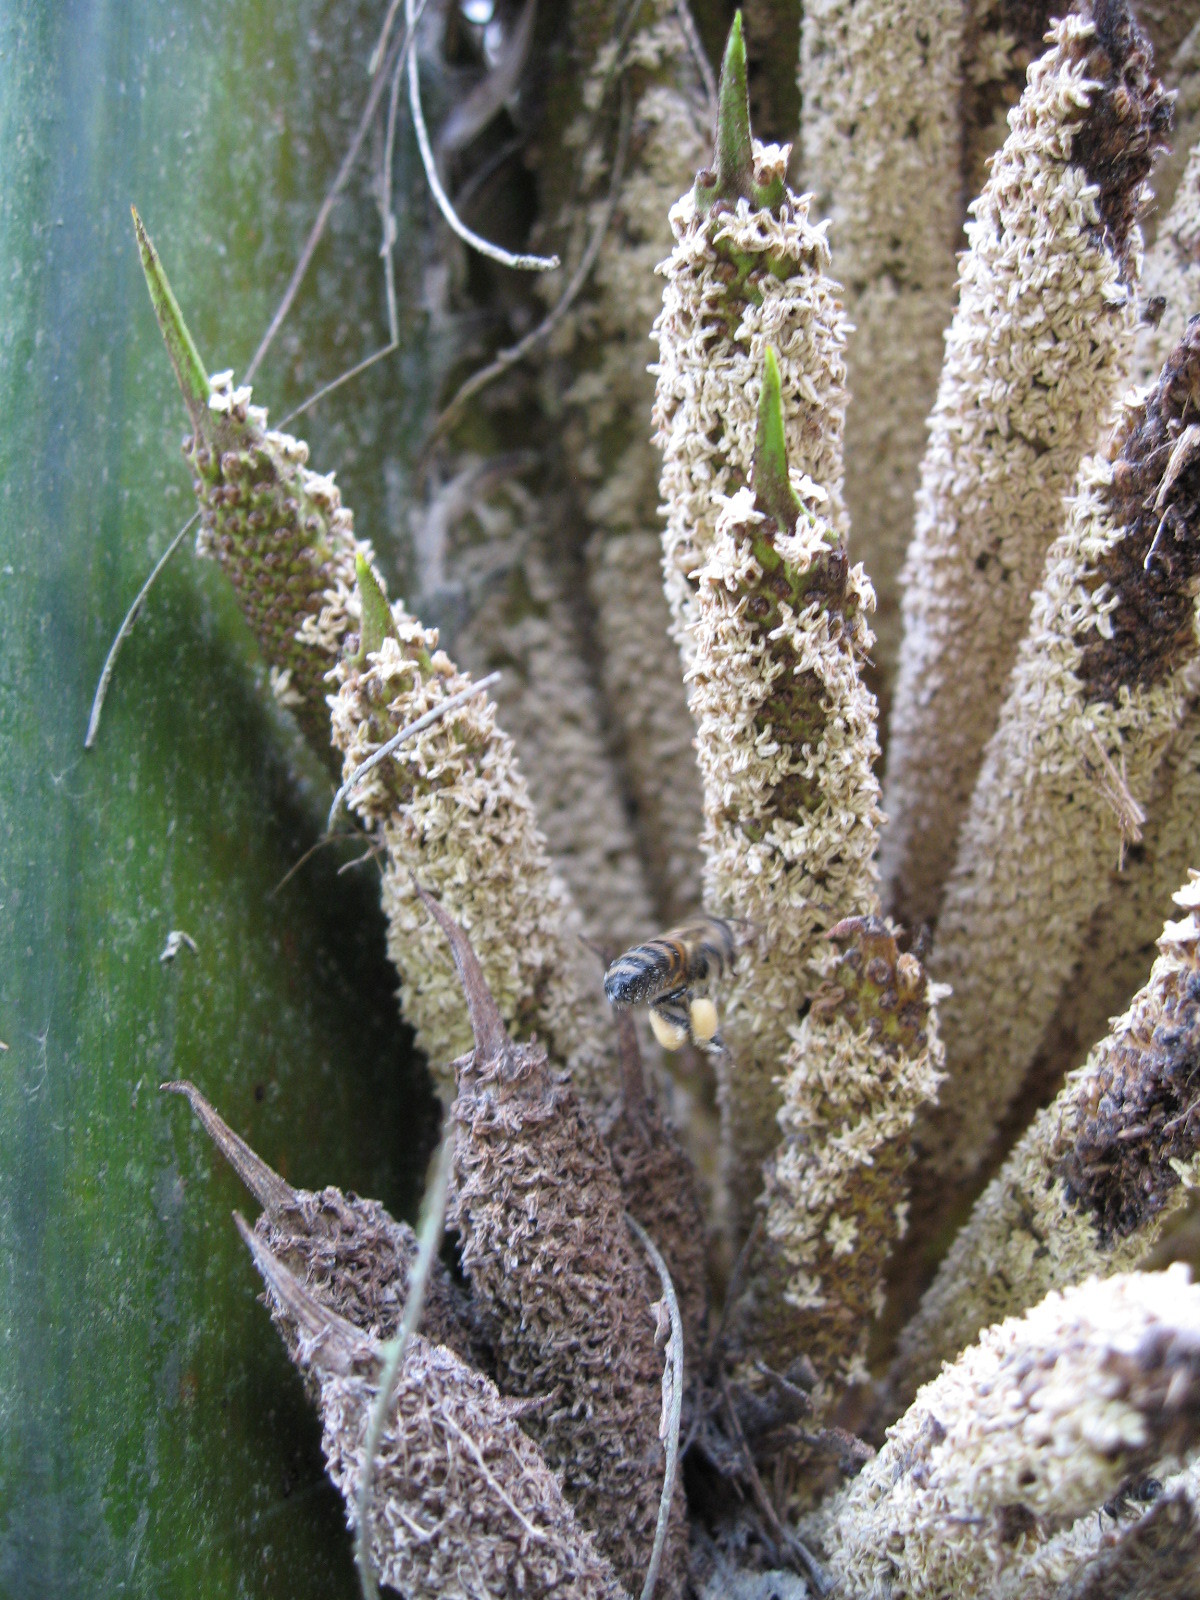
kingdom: Animalia
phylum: Arthropoda
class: Insecta
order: Hymenoptera
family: Apidae
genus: Apis
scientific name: Apis mellifera
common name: Honey bee
